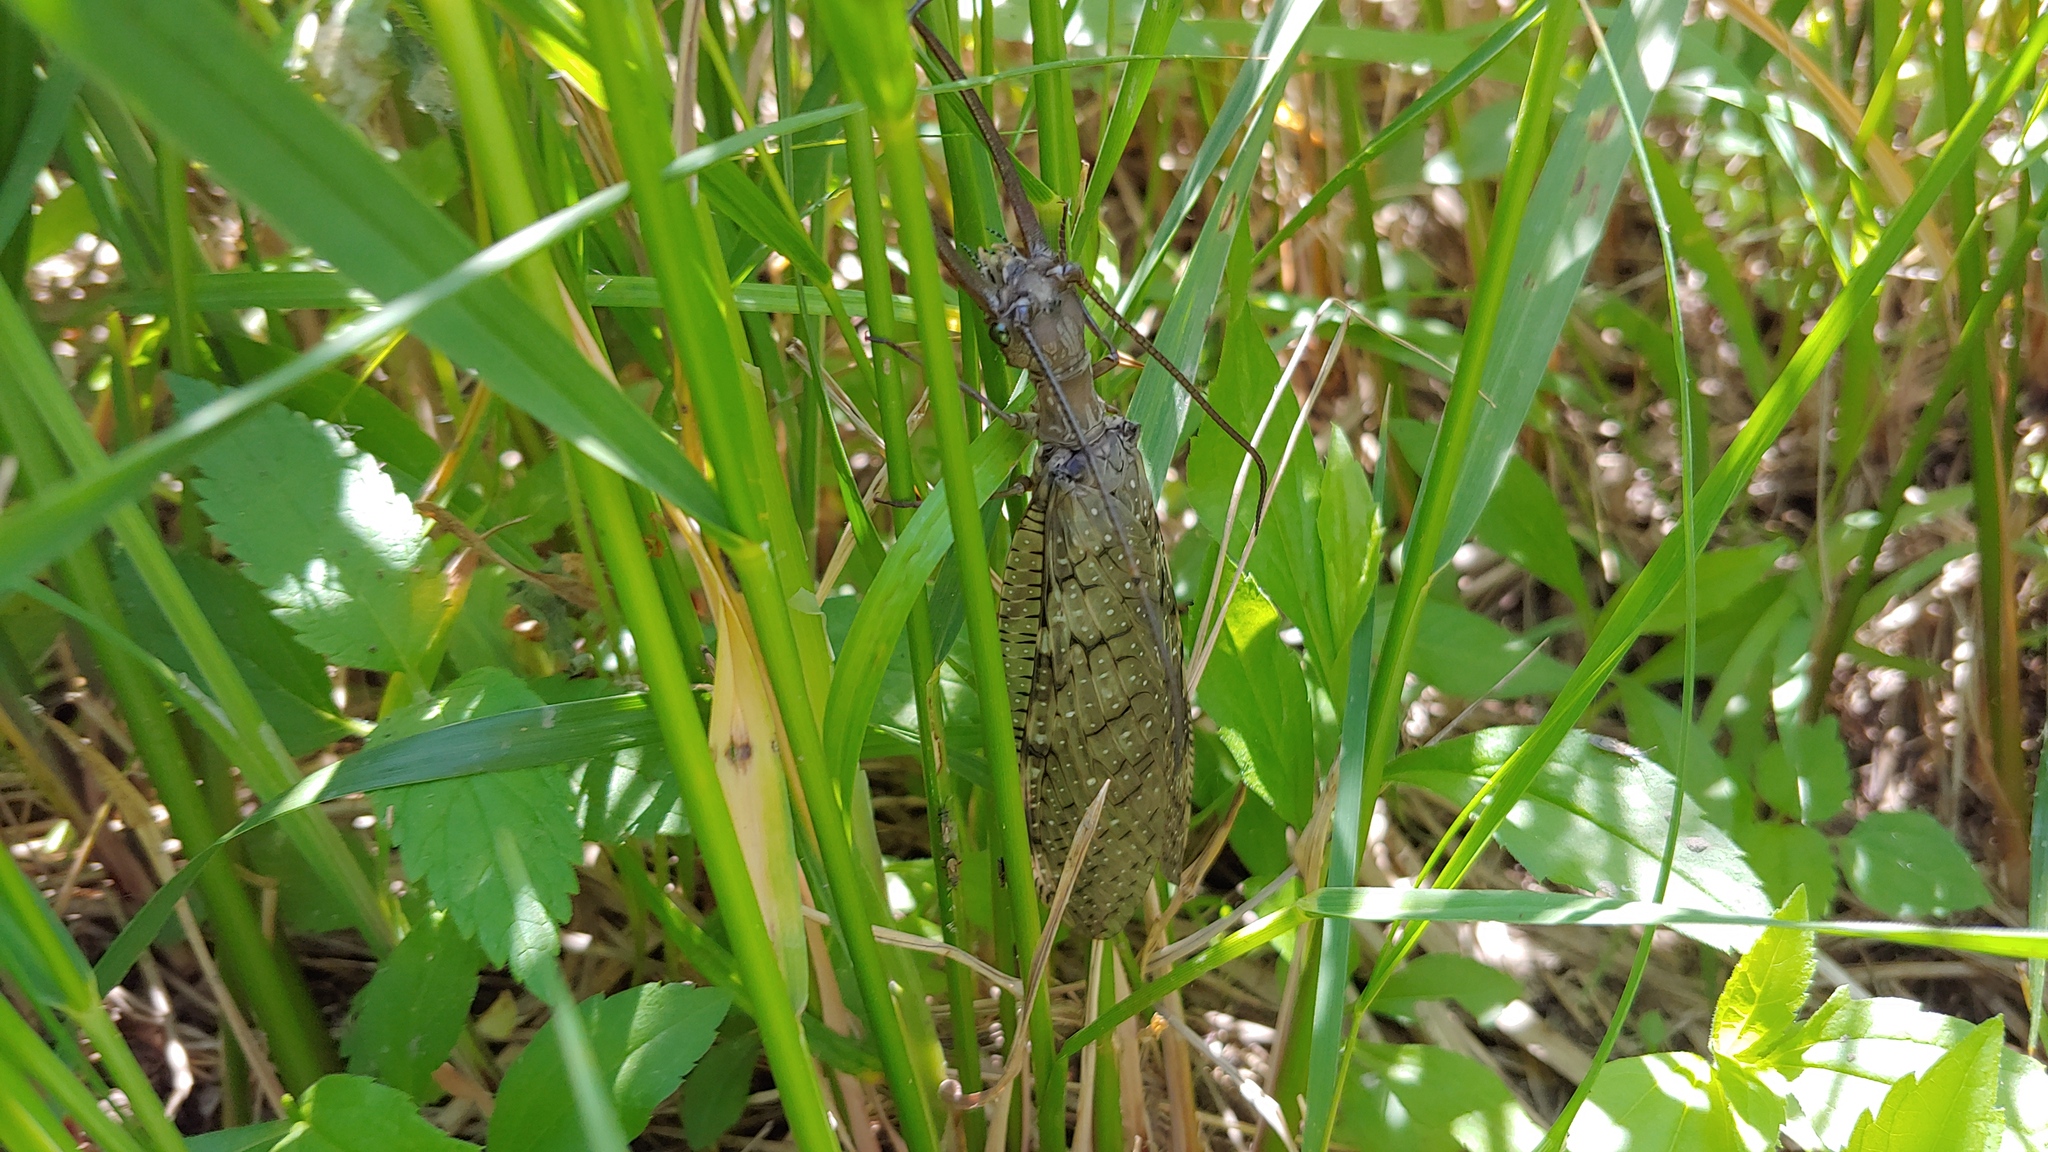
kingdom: Animalia
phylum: Arthropoda
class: Insecta
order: Megaloptera
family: Corydalidae
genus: Corydalus
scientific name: Corydalus cornutus
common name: Dobsonfly
